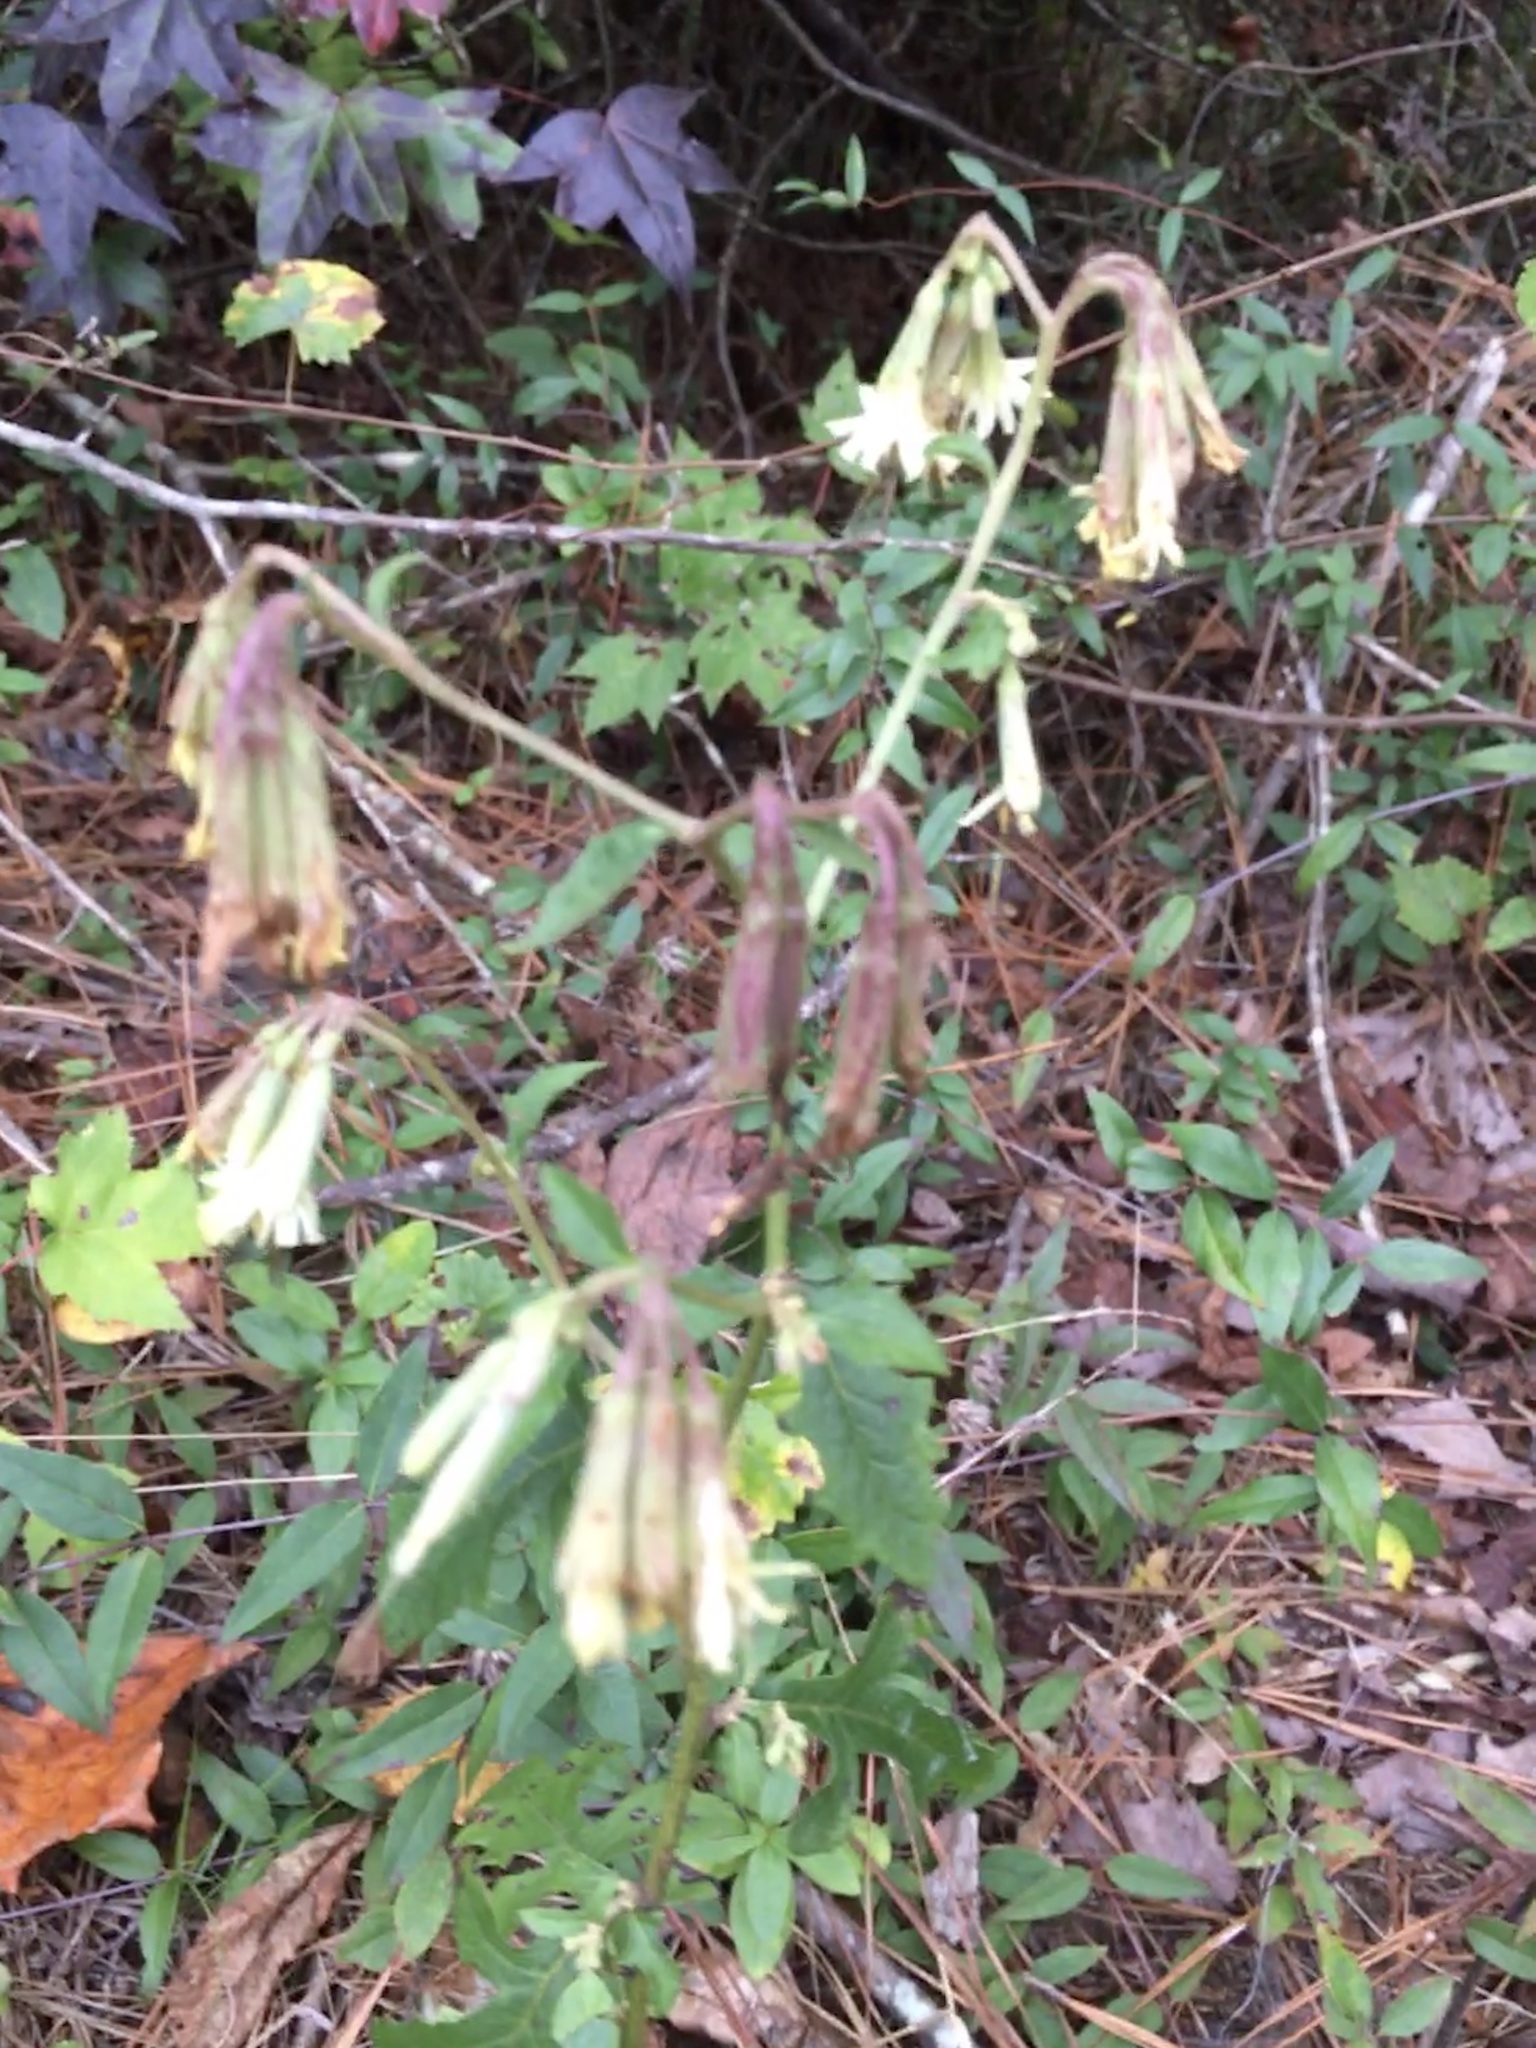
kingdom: Plantae
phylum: Tracheophyta
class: Magnoliopsida
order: Asterales
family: Asteraceae
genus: Nabalus
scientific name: Nabalus serpentarius
